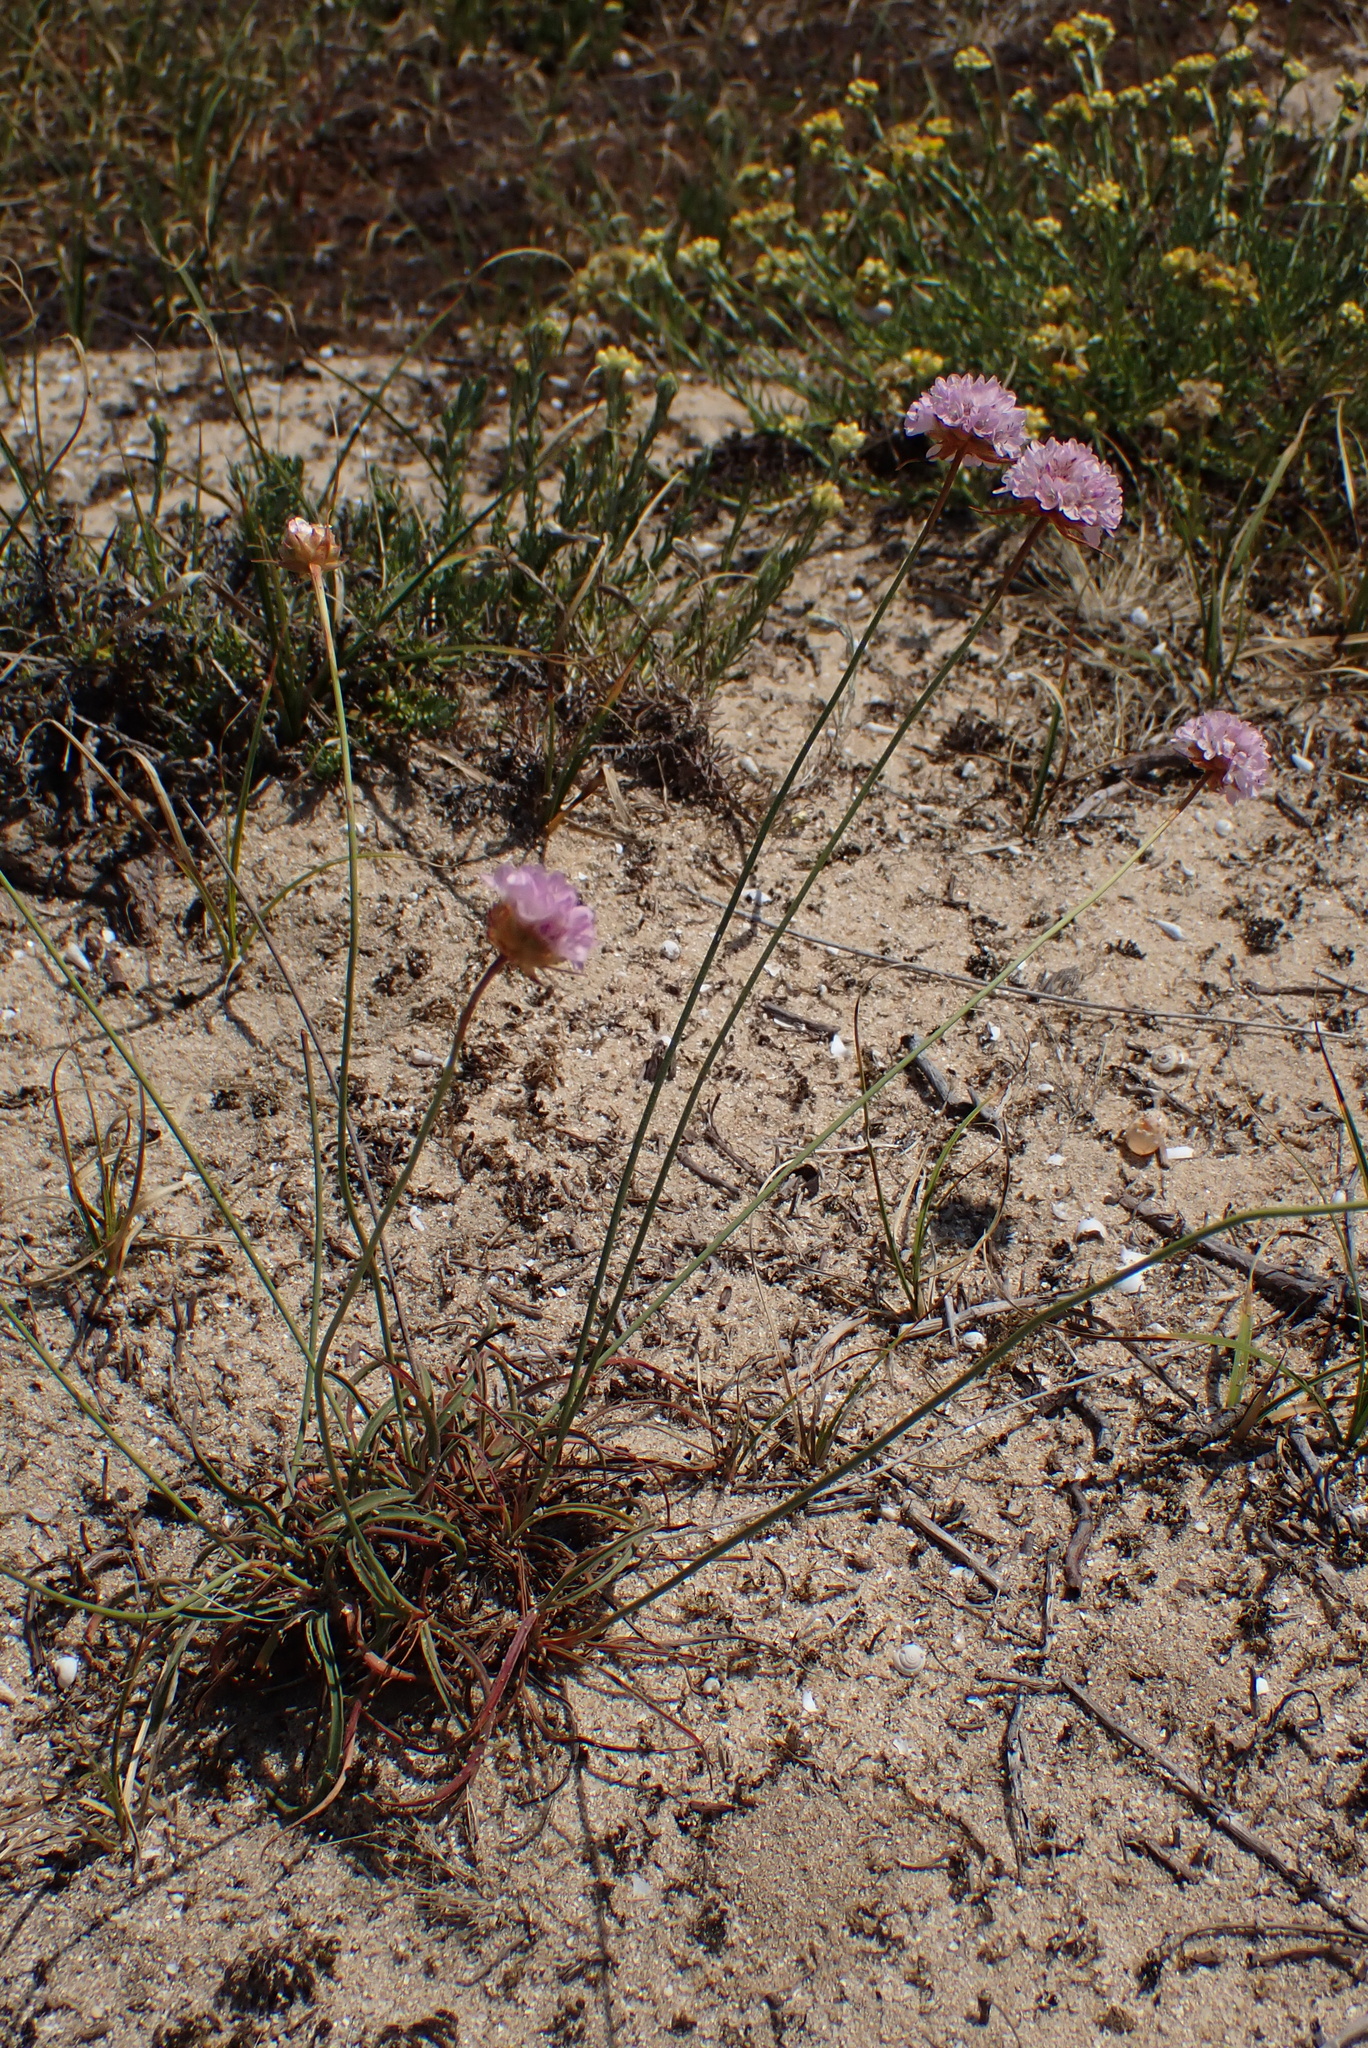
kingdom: Plantae
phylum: Tracheophyta
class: Magnoliopsida
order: Caryophyllales
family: Plumbaginaceae
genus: Armeria
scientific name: Armeria arenaria
